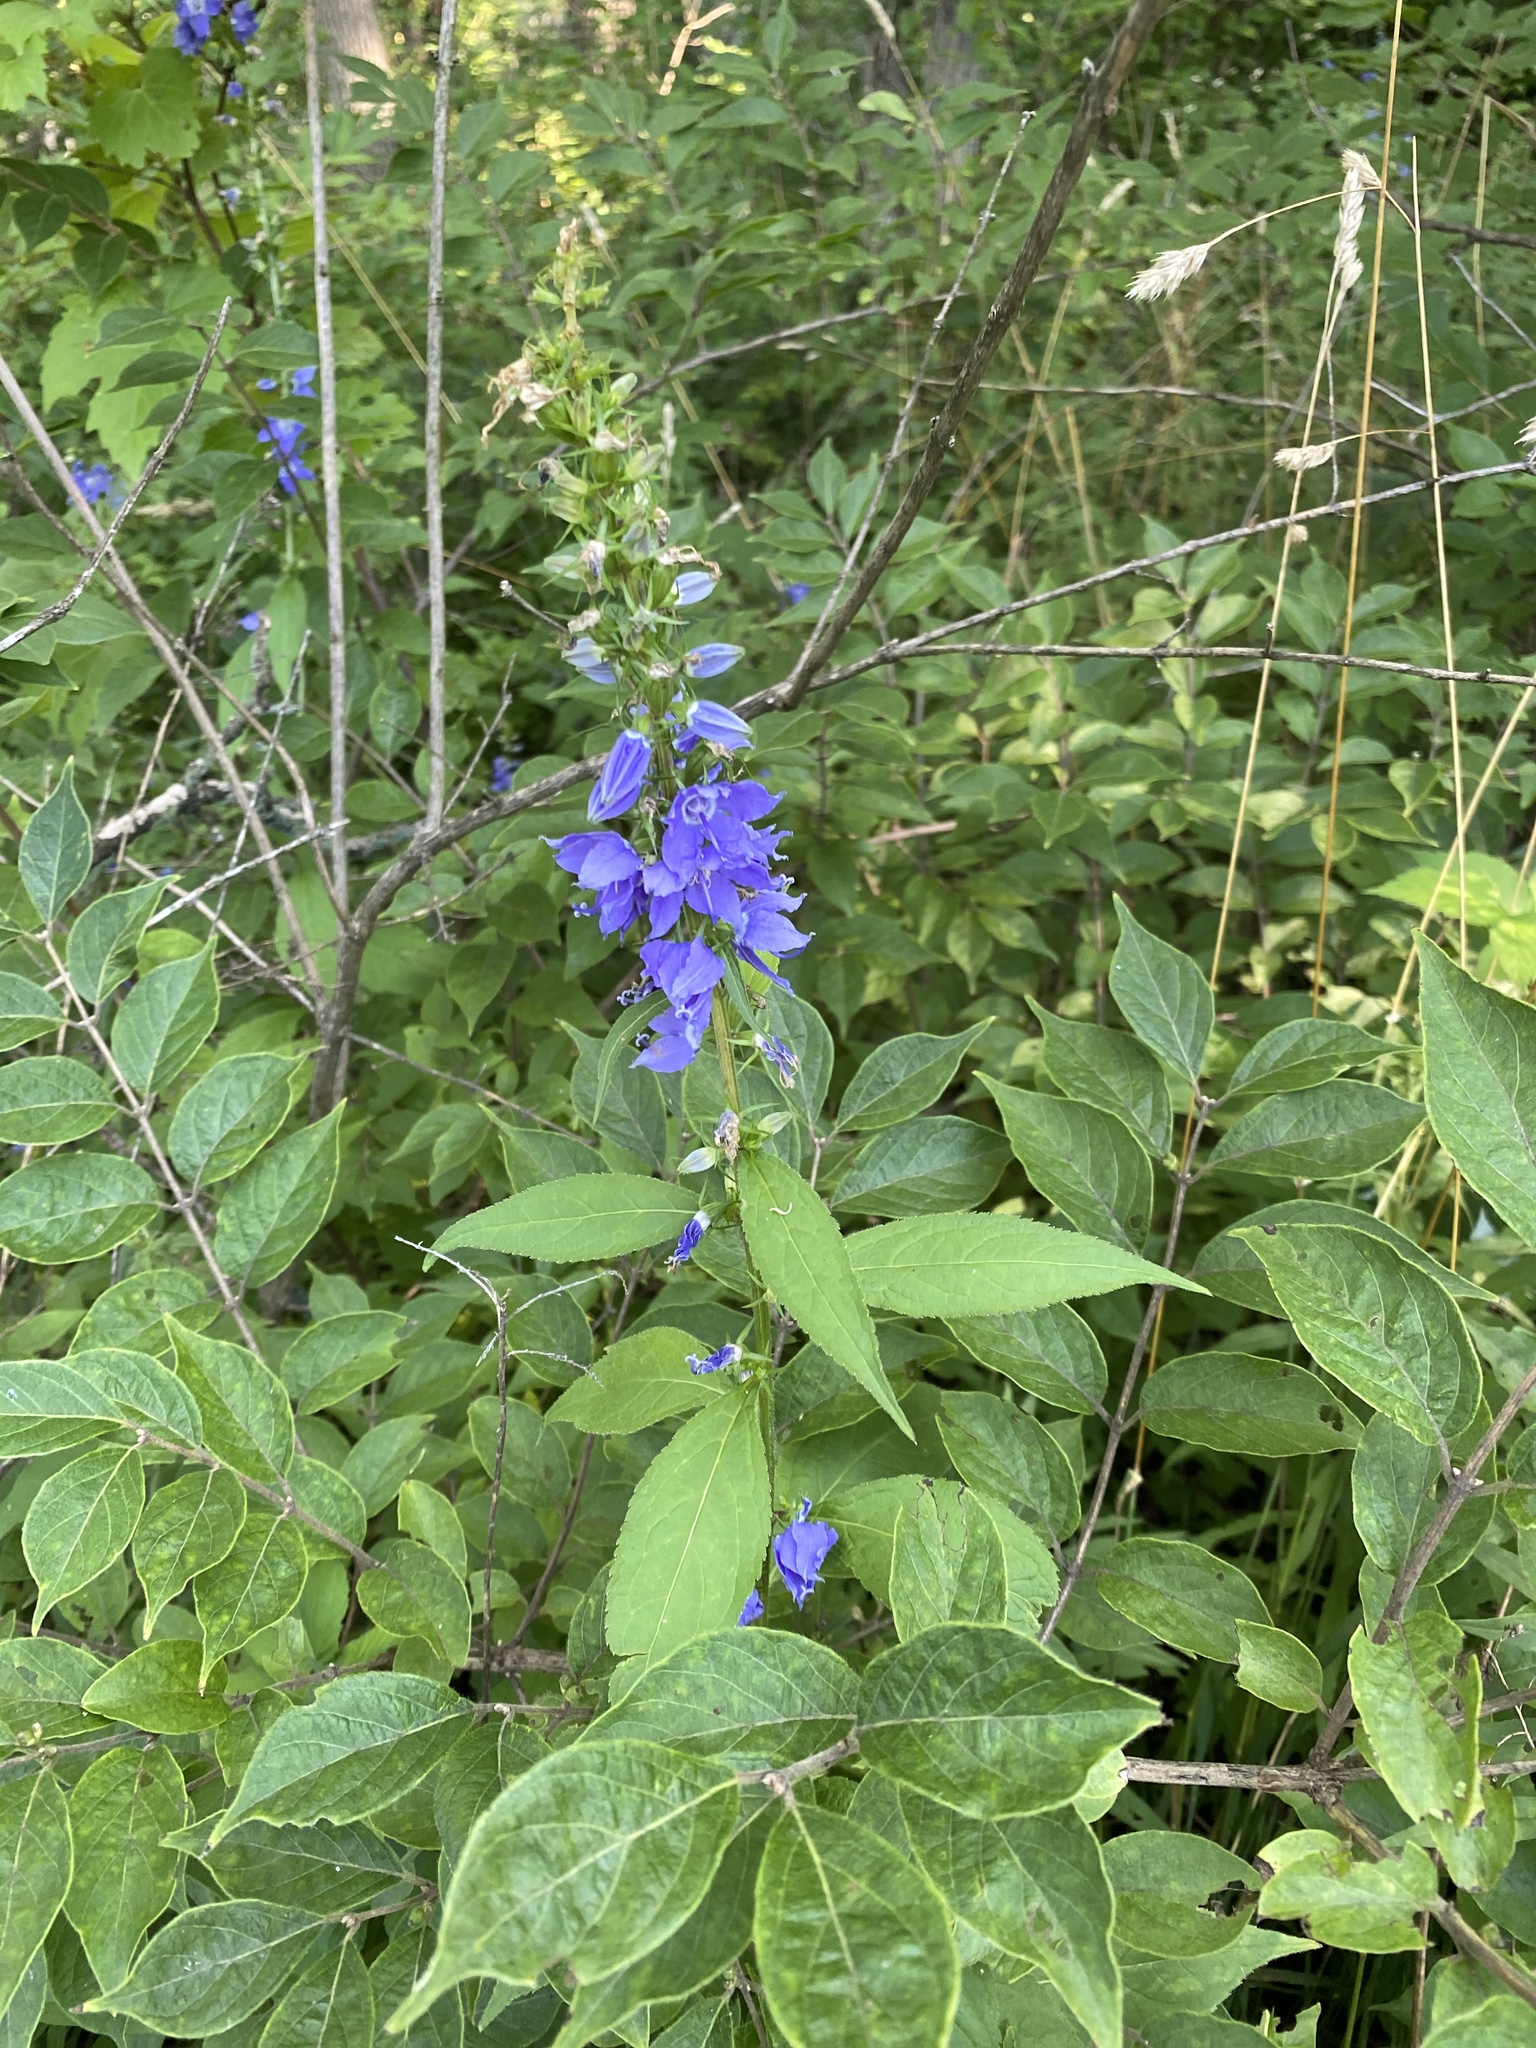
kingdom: Plantae
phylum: Tracheophyta
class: Magnoliopsida
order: Asterales
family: Campanulaceae
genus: Campanulastrum
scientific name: Campanulastrum americanum
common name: American bellflower
